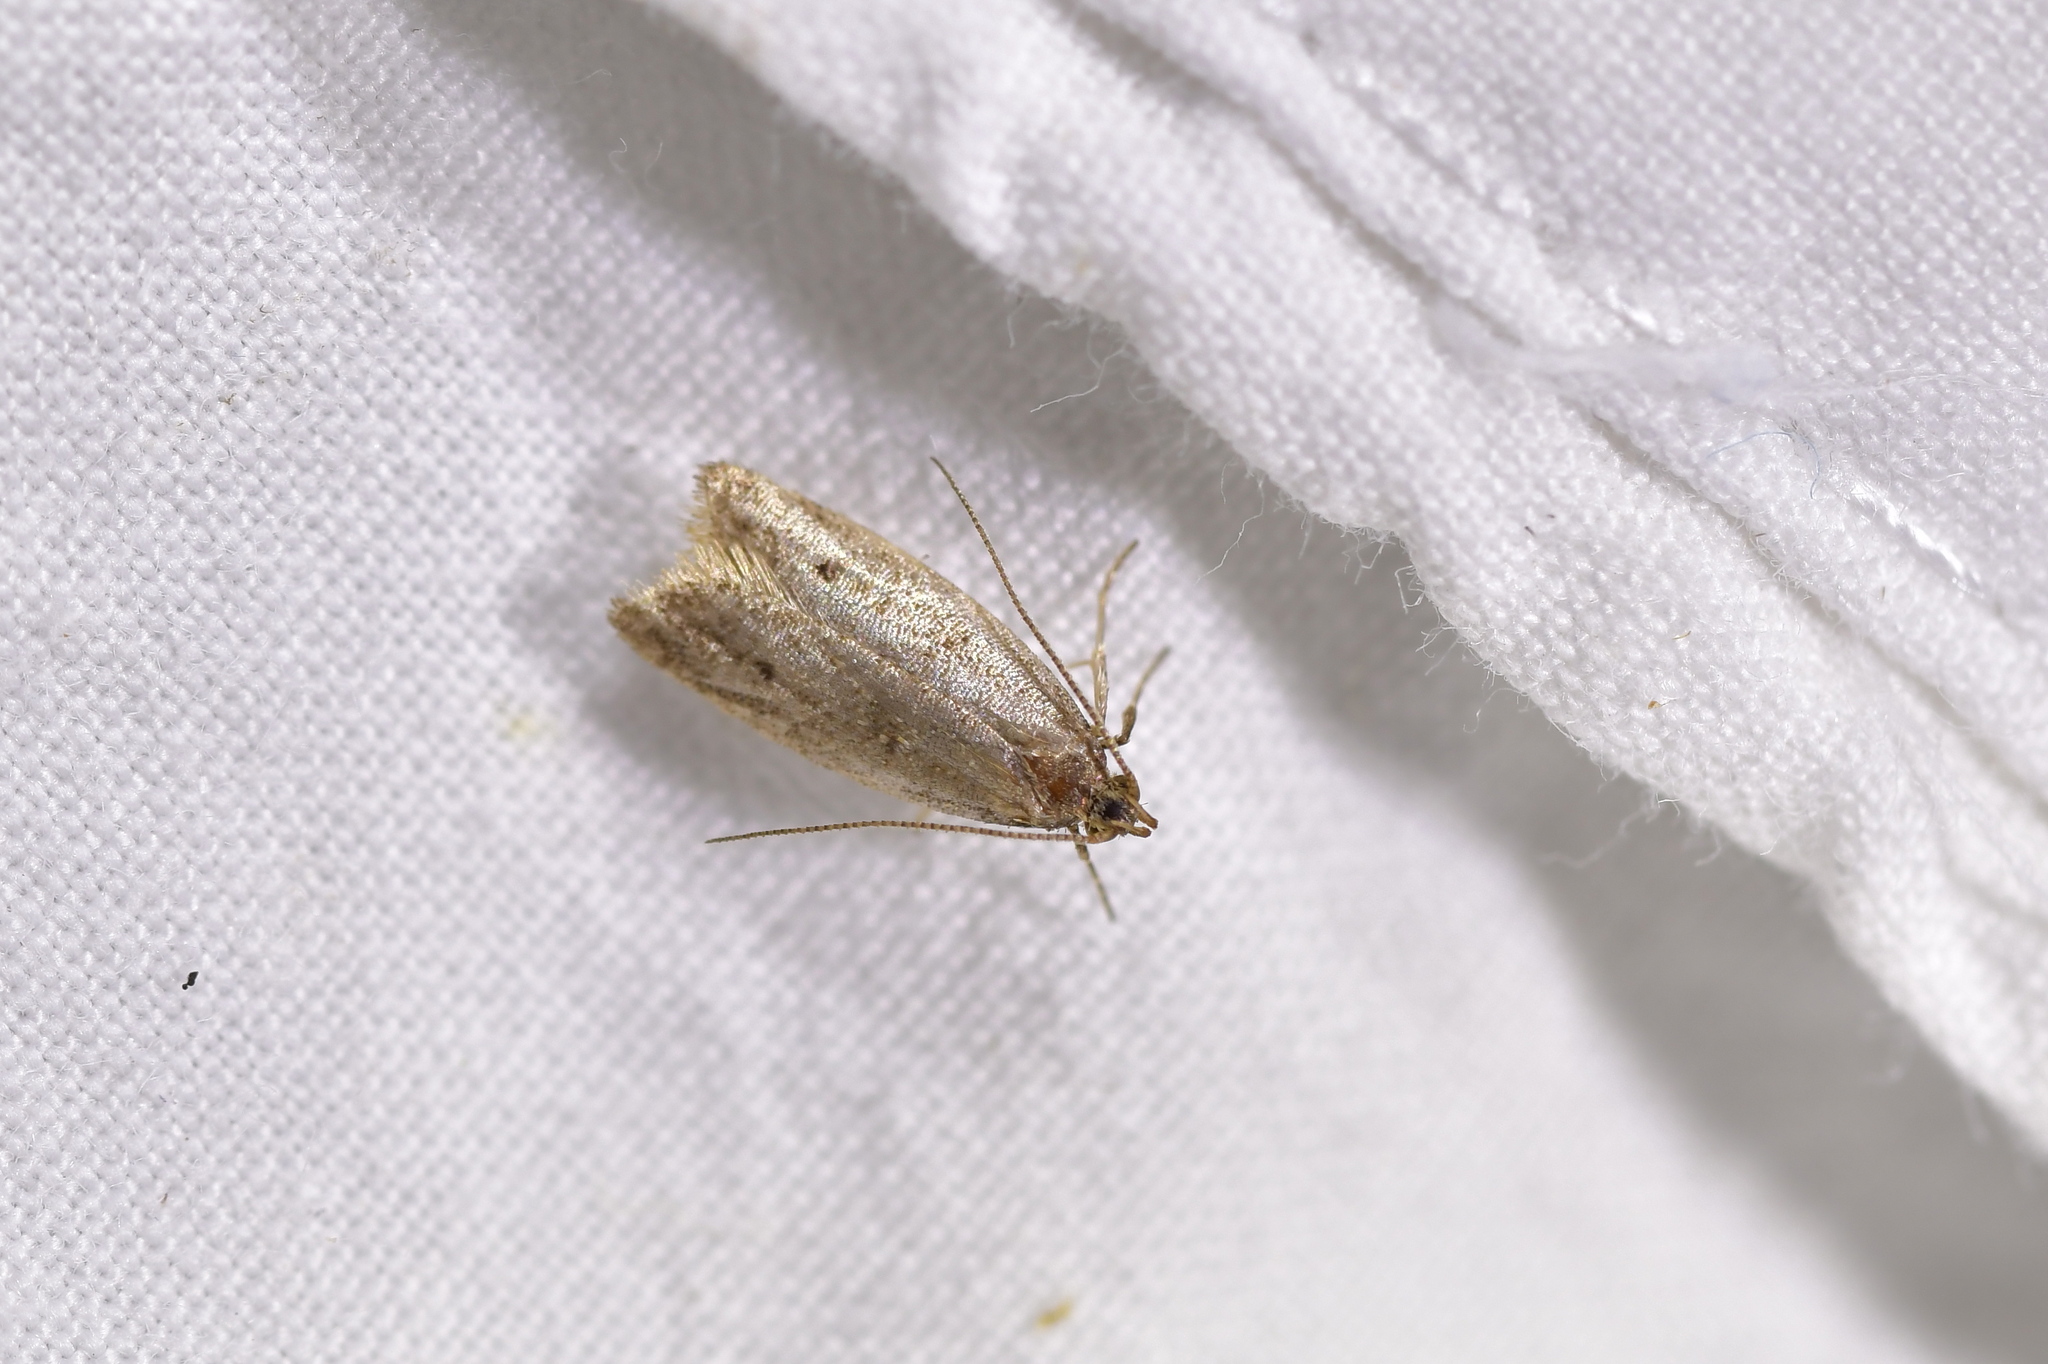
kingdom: Animalia
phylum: Arthropoda
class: Insecta
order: Lepidoptera
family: Oecophoridae
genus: Gymnobathra
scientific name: Gymnobathra tholodella
